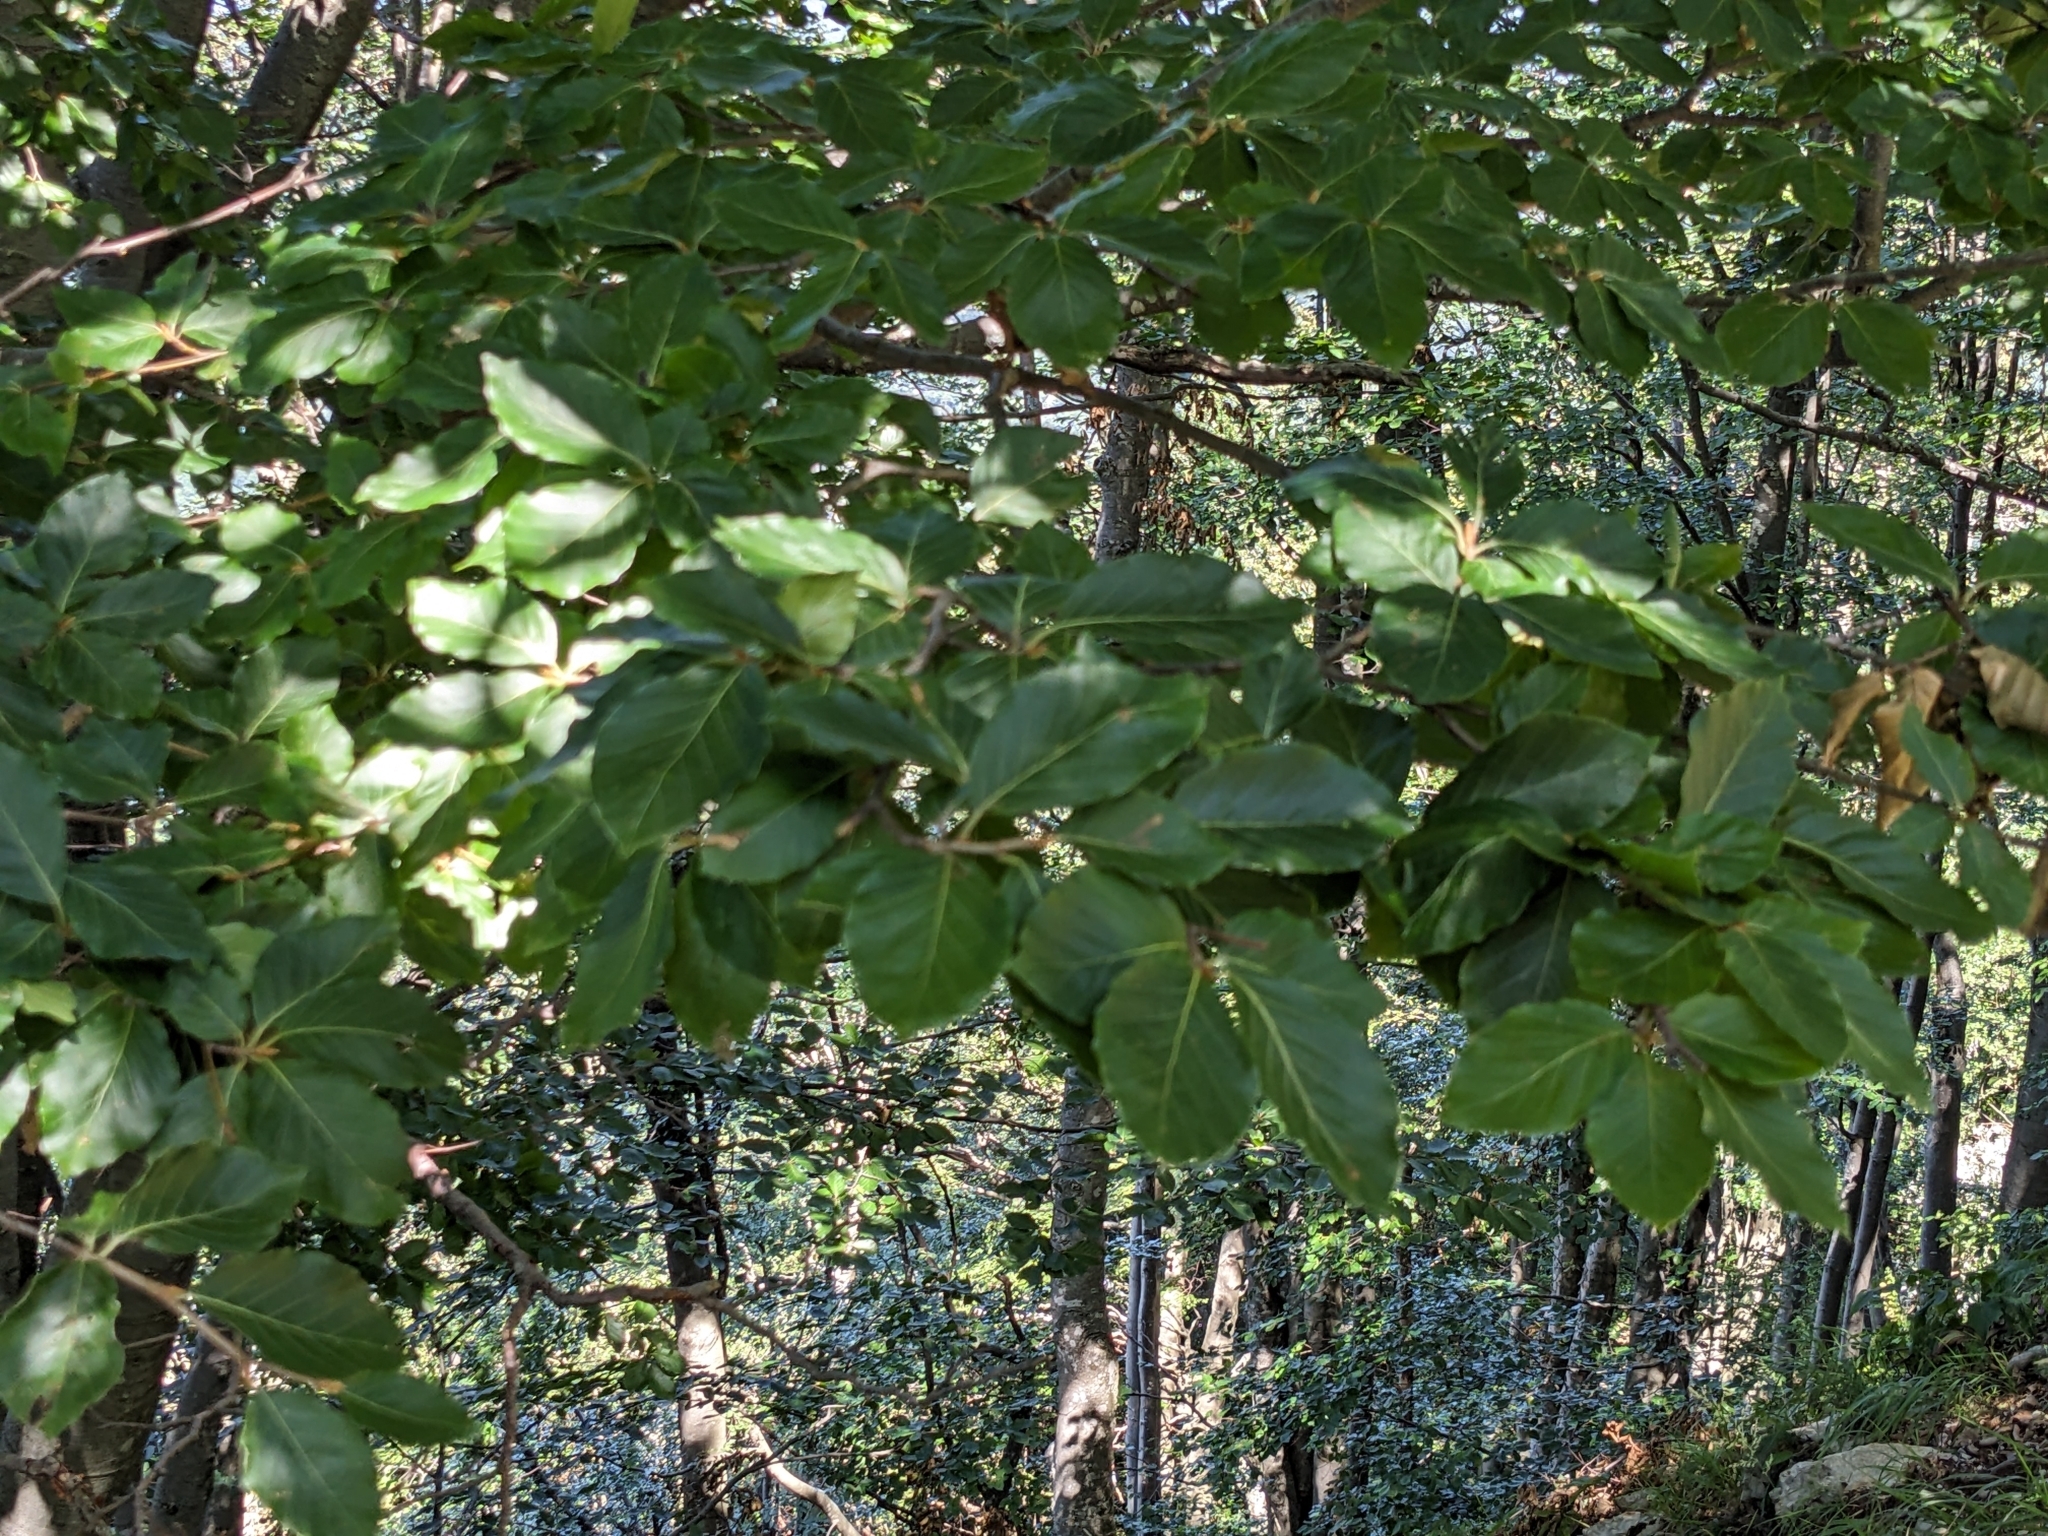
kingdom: Plantae
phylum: Tracheophyta
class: Magnoliopsida
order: Fagales
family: Fagaceae
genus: Fagus
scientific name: Fagus sylvatica
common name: Beech
